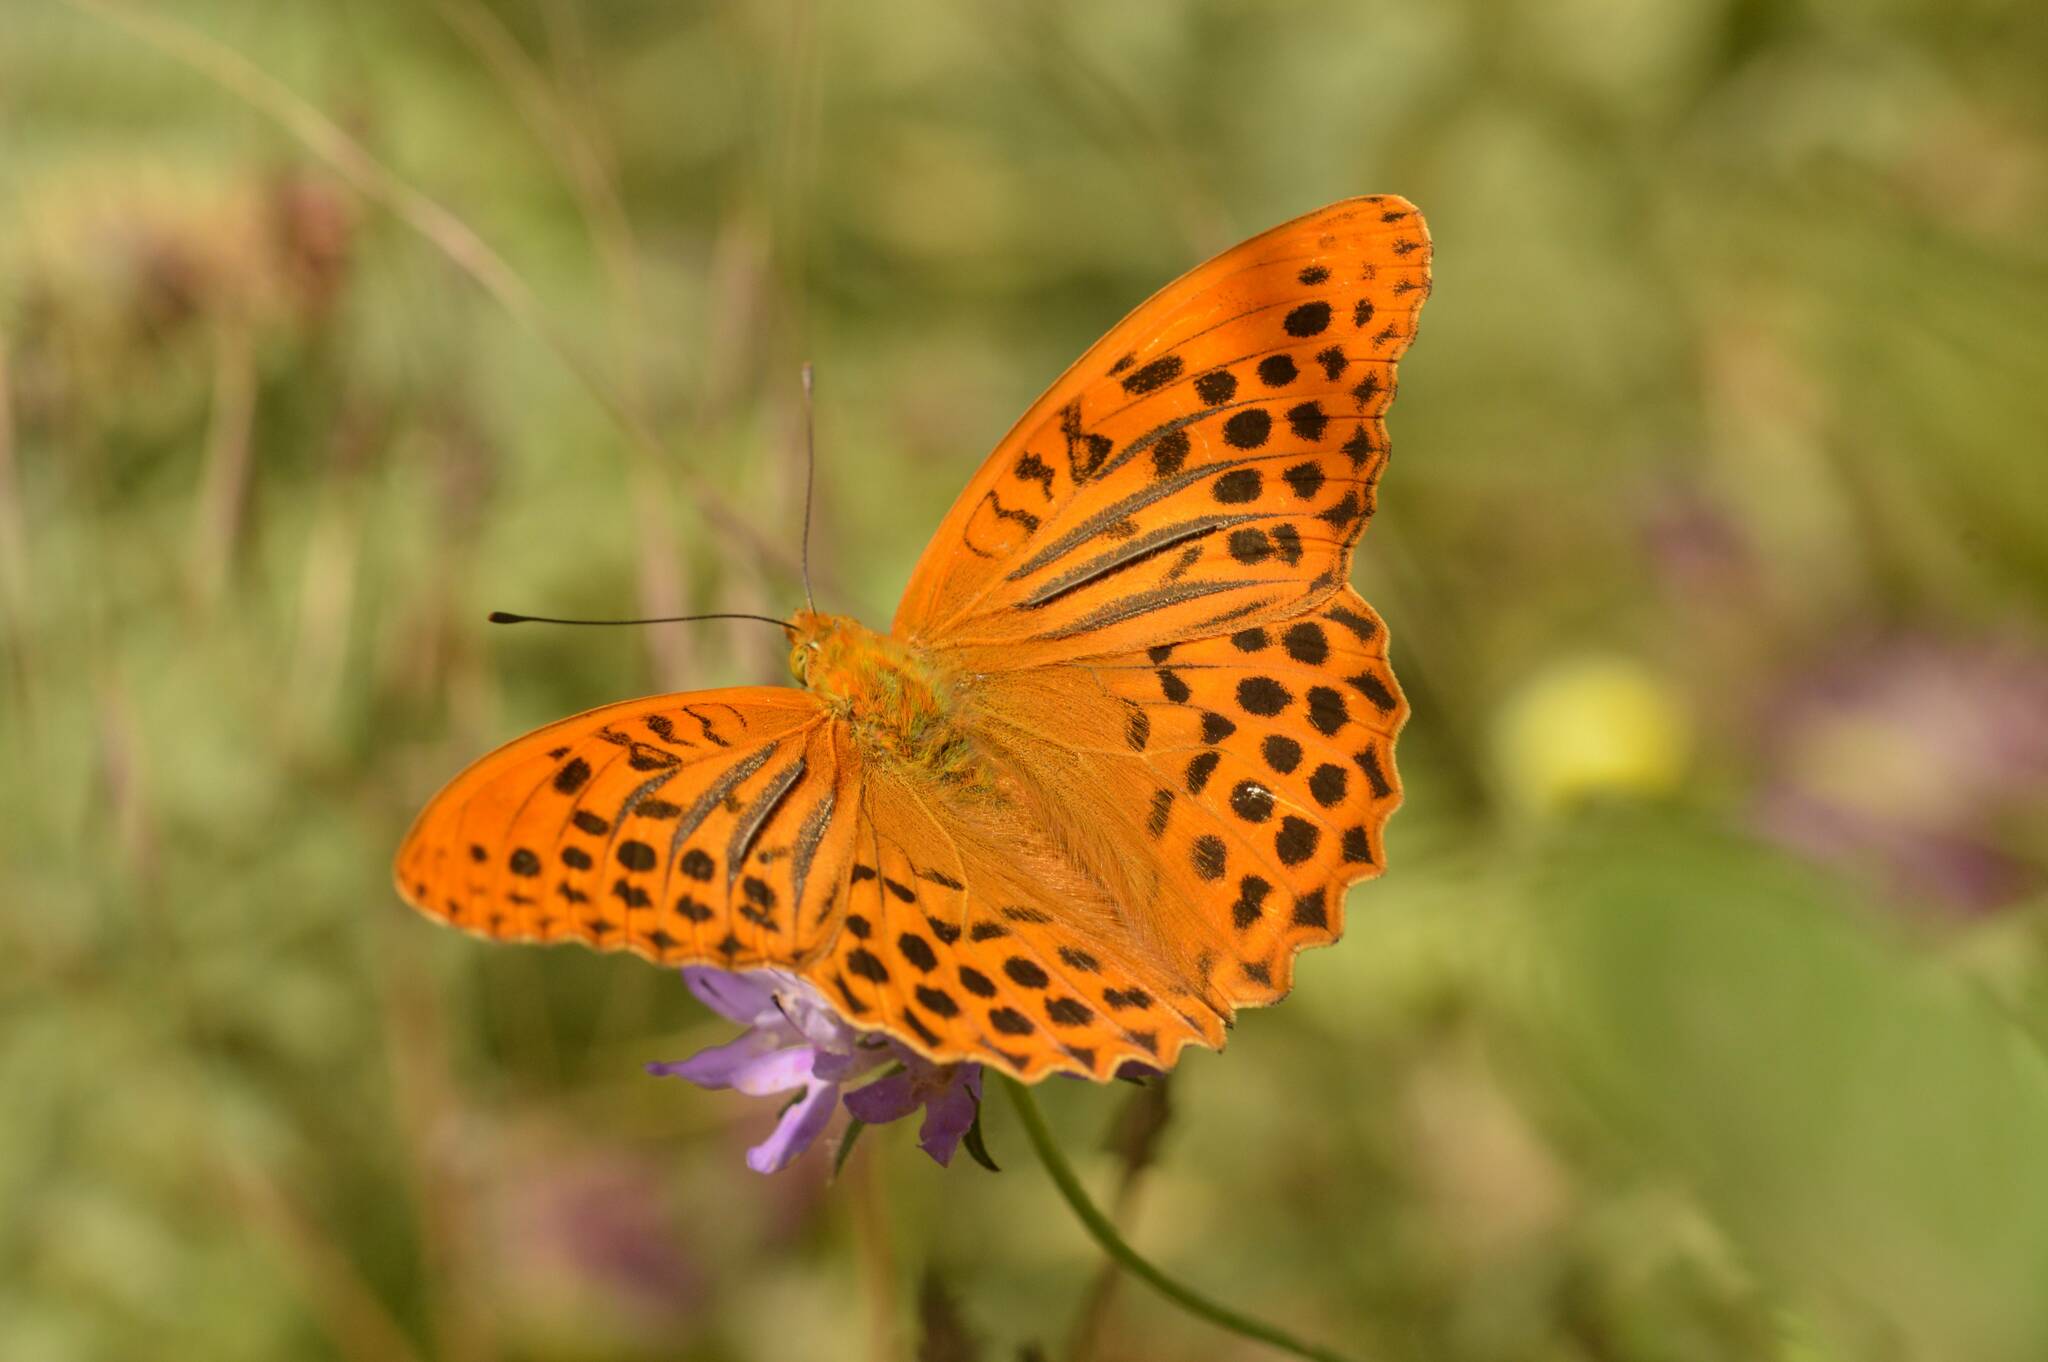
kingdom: Animalia
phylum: Arthropoda
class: Insecta
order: Lepidoptera
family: Nymphalidae
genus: Argynnis
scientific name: Argynnis paphia
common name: Silver-washed fritillary
